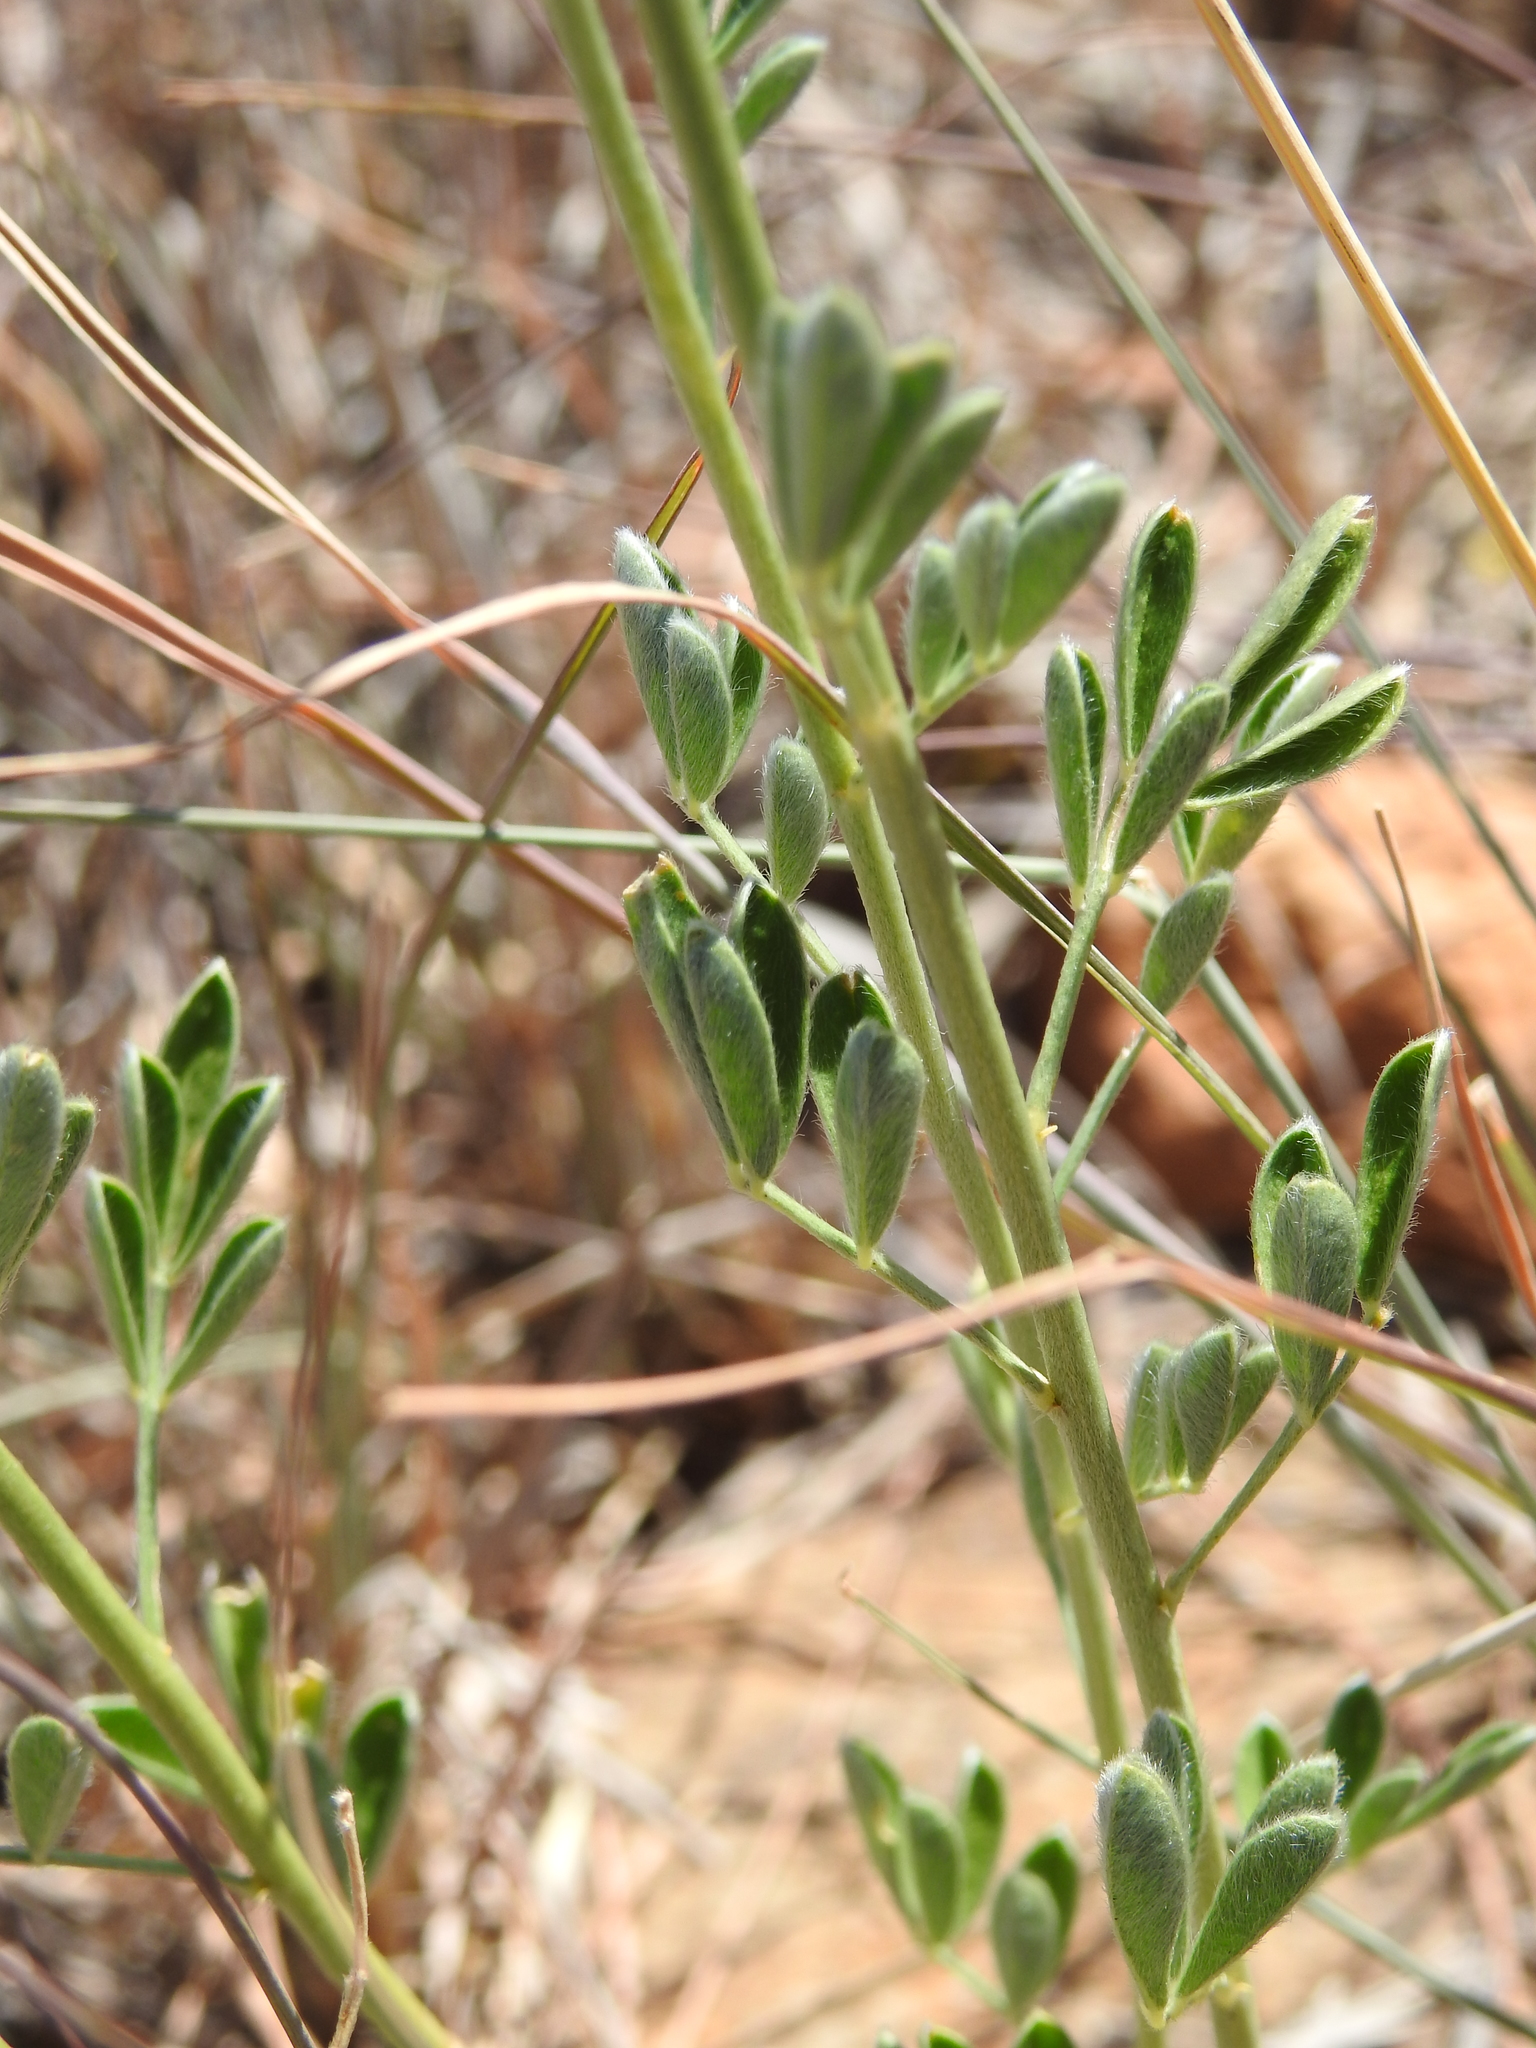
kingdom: Plantae
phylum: Tracheophyta
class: Magnoliopsida
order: Fabales
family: Fabaceae
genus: Dalea
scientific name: Dalea aurea
